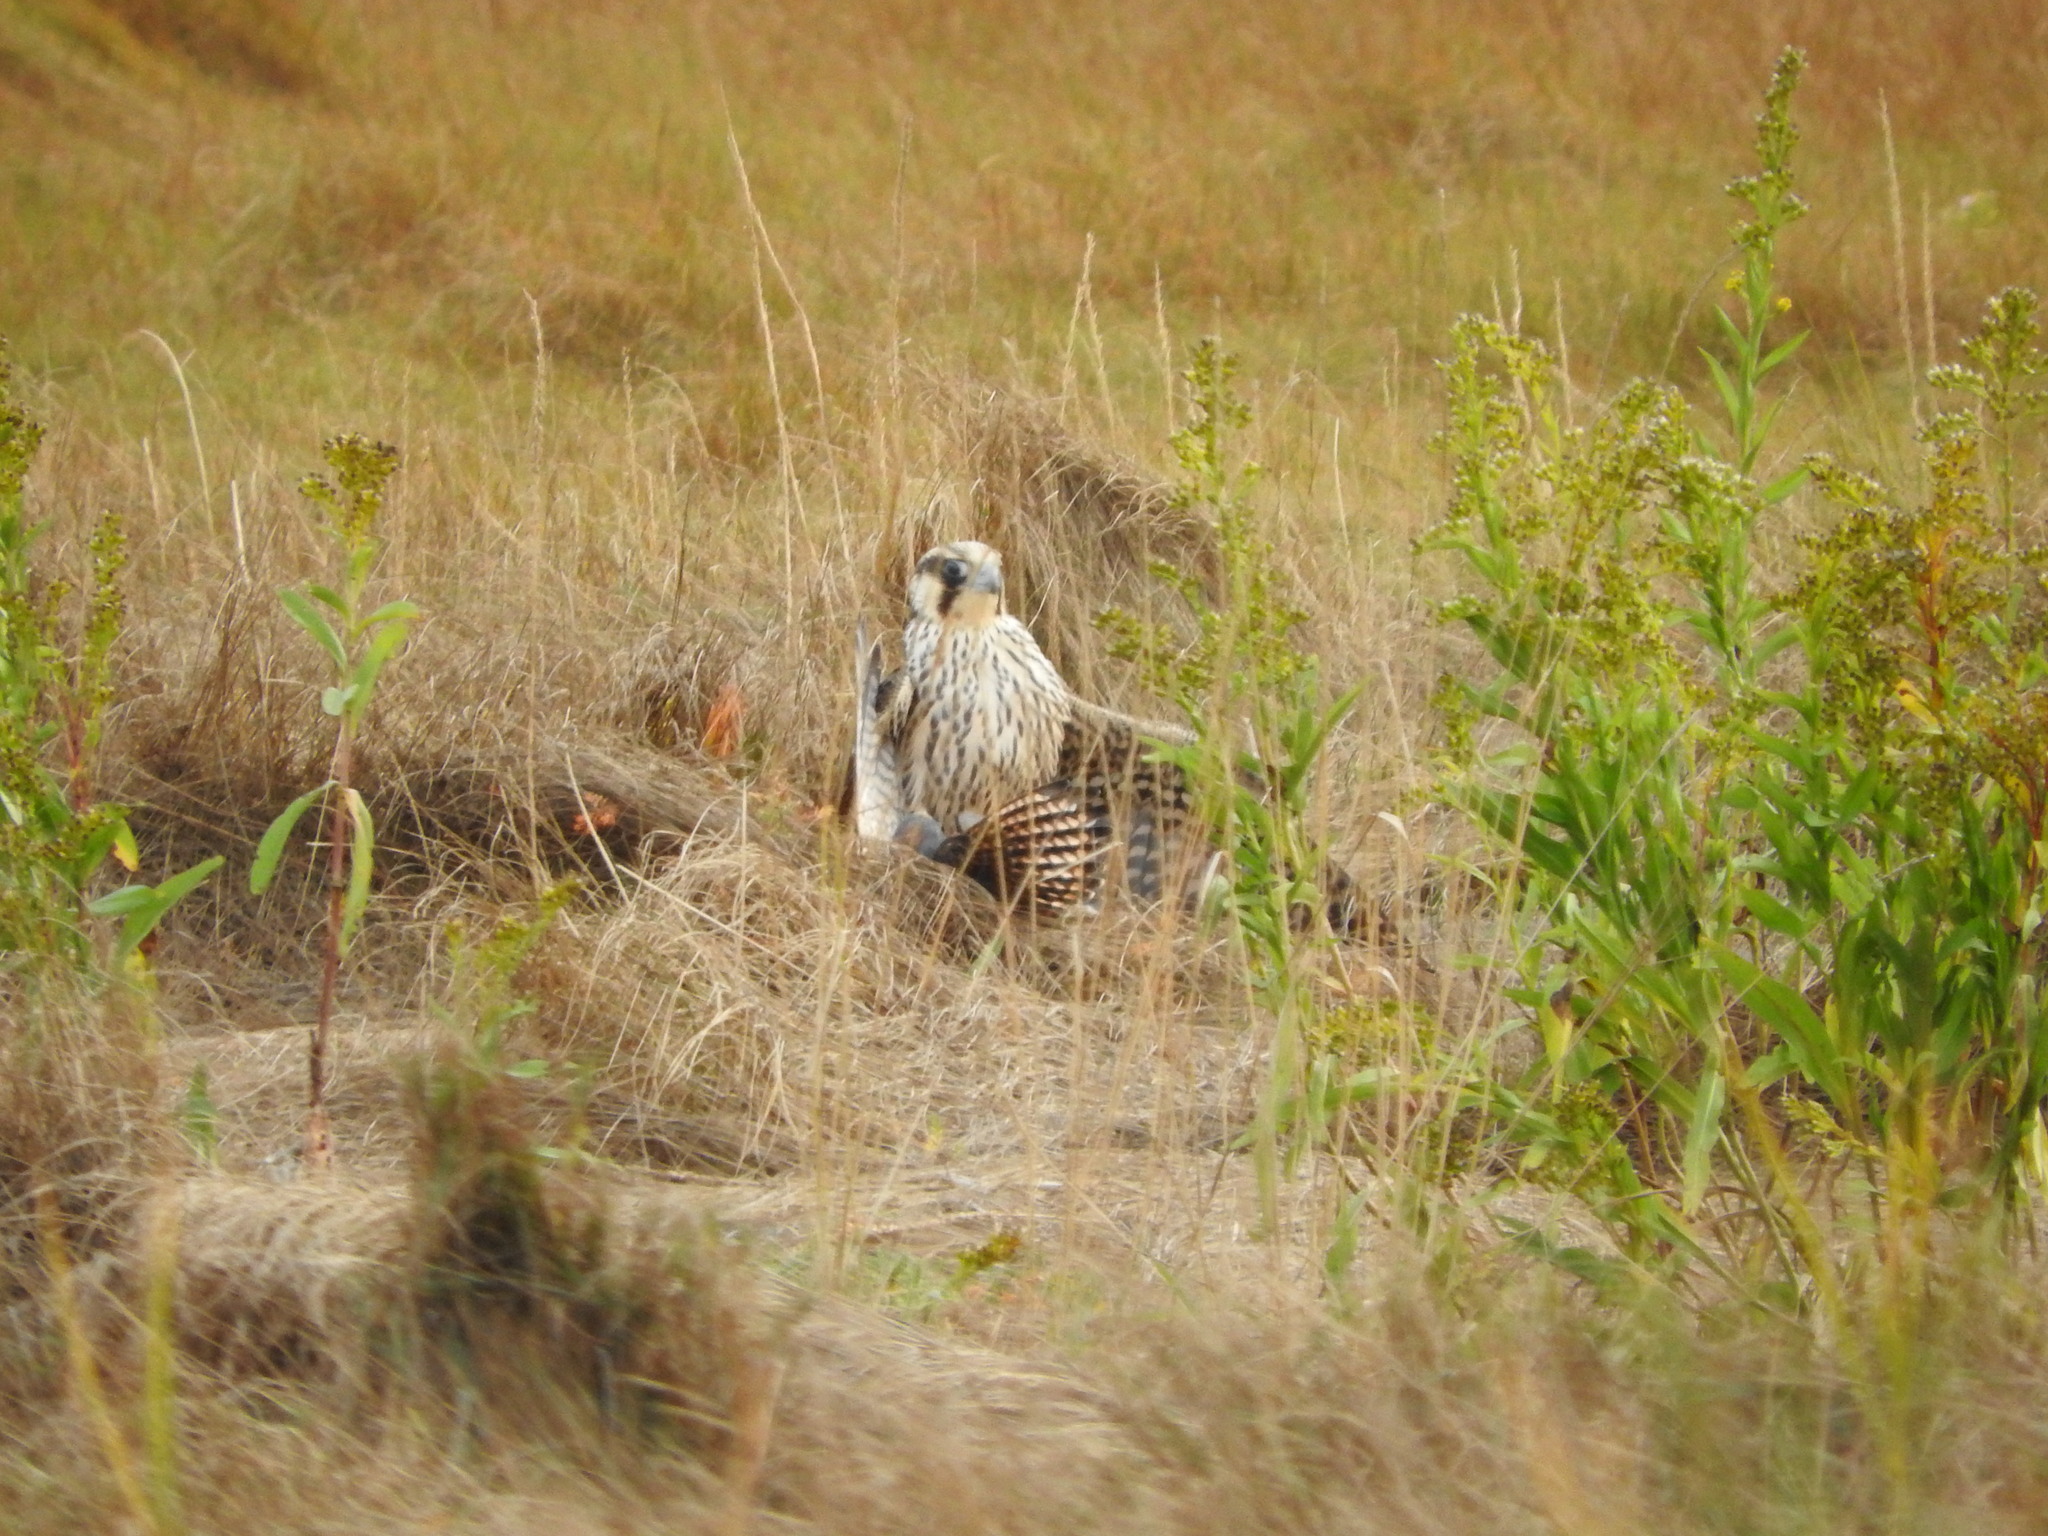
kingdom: Animalia
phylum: Chordata
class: Aves
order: Falconiformes
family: Falconidae
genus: Falco
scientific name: Falco peregrinus
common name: Peregrine falcon
